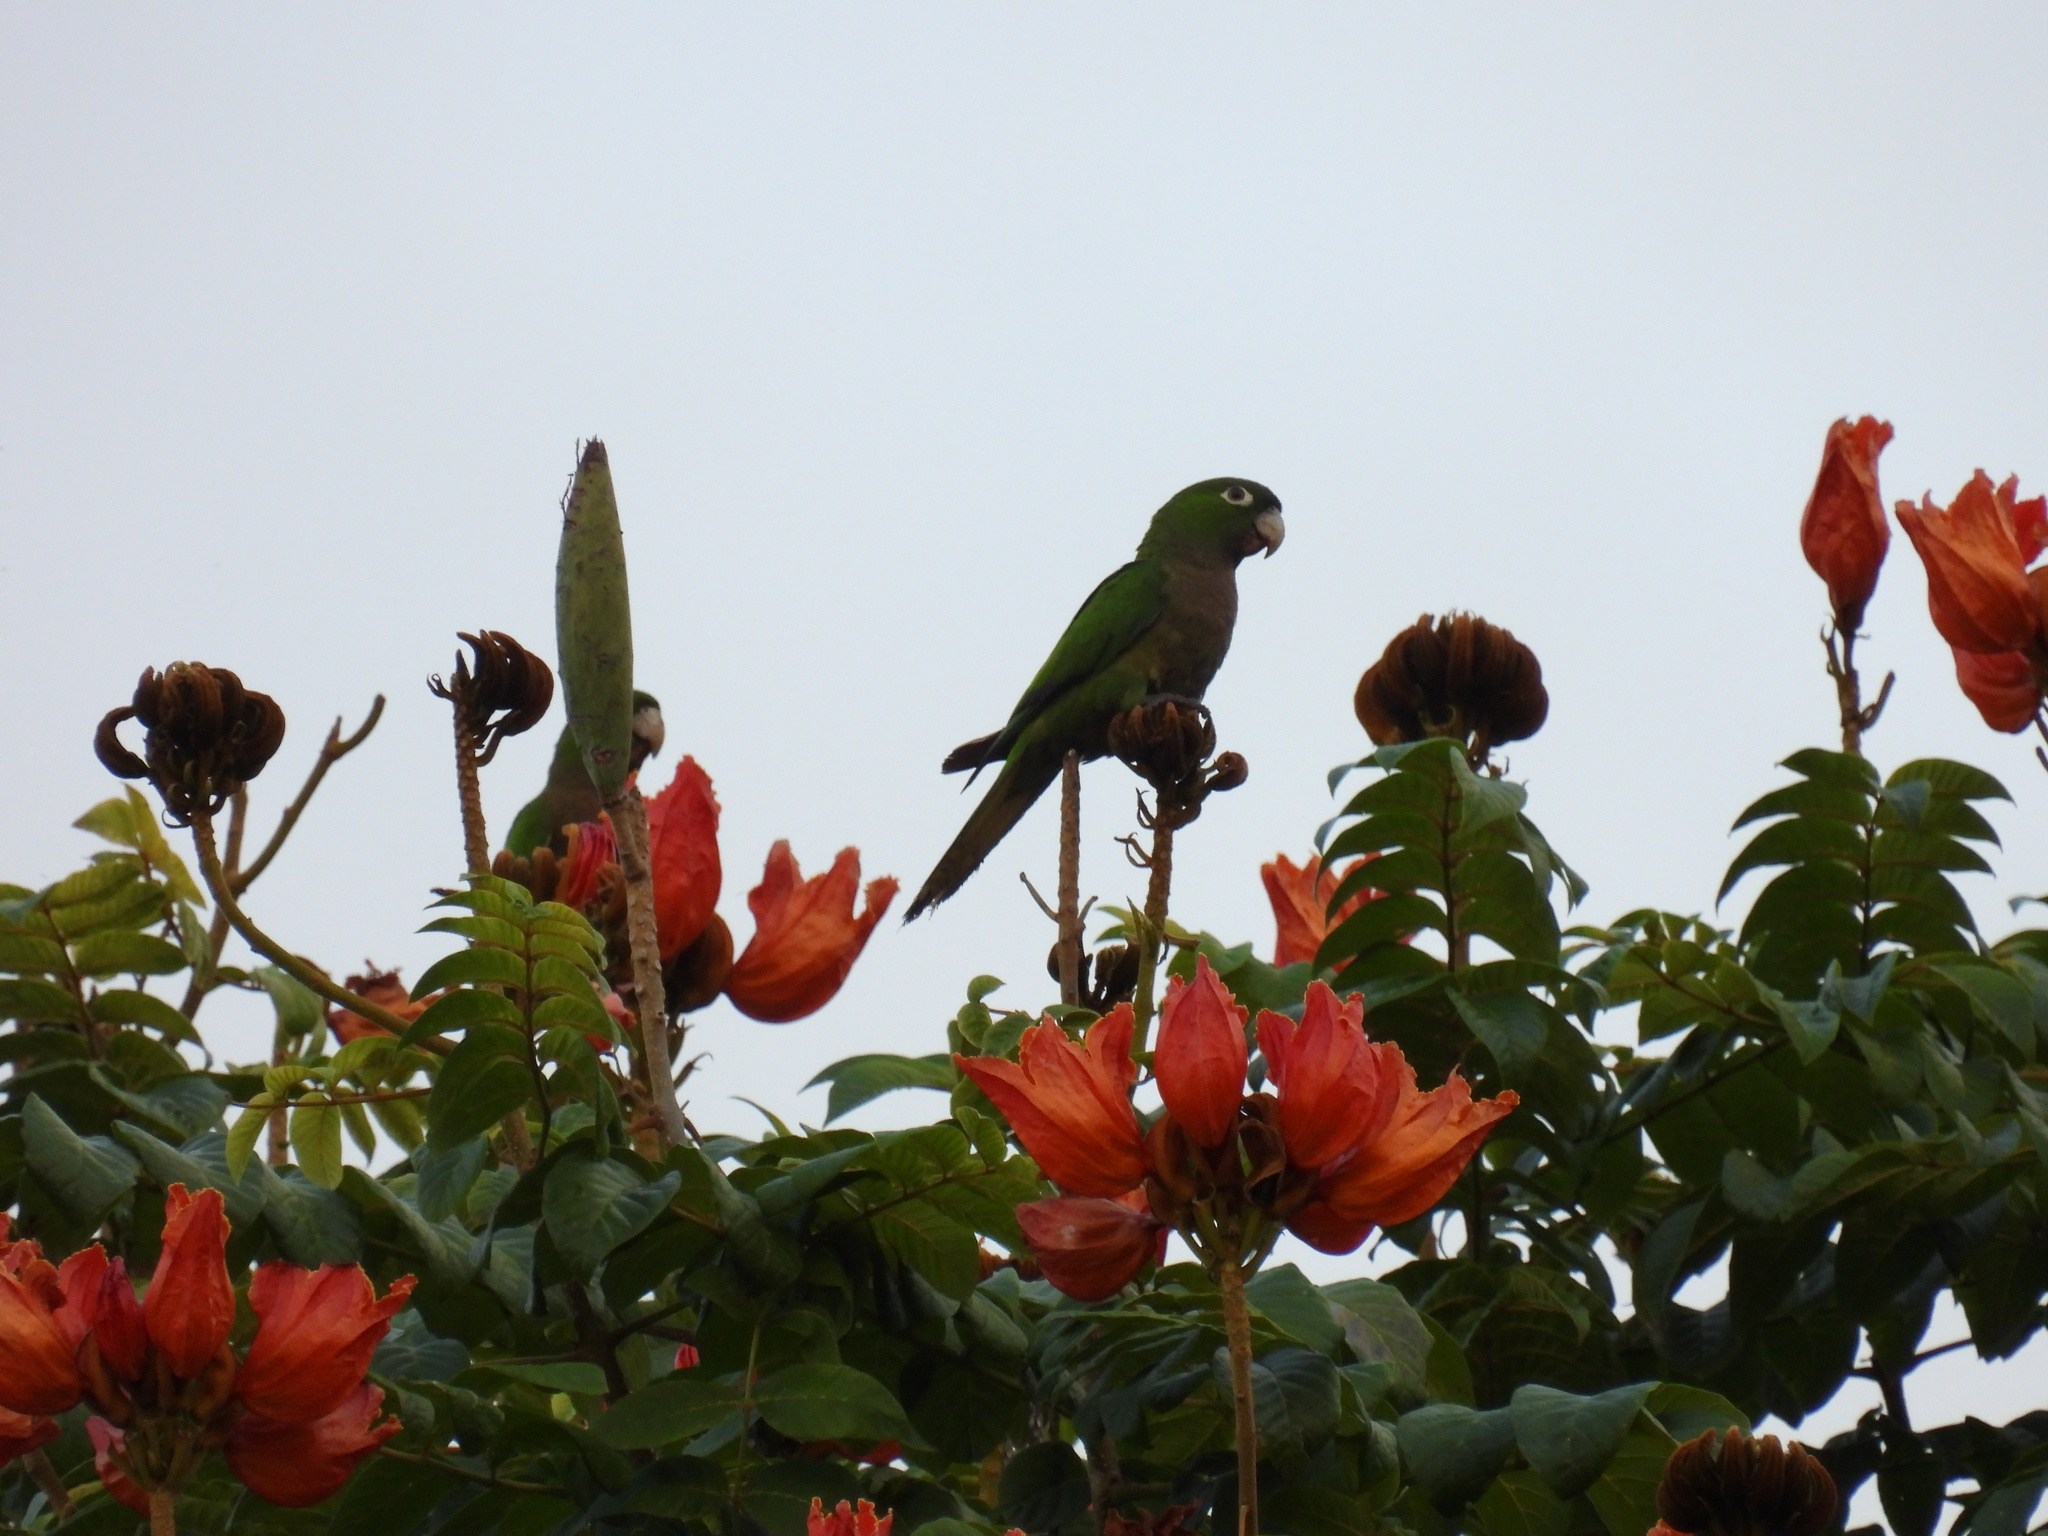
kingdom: Animalia
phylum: Chordata
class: Aves
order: Psittaciformes
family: Psittacidae
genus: Aratinga
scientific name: Aratinga nana
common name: Olive-throated parakeet
